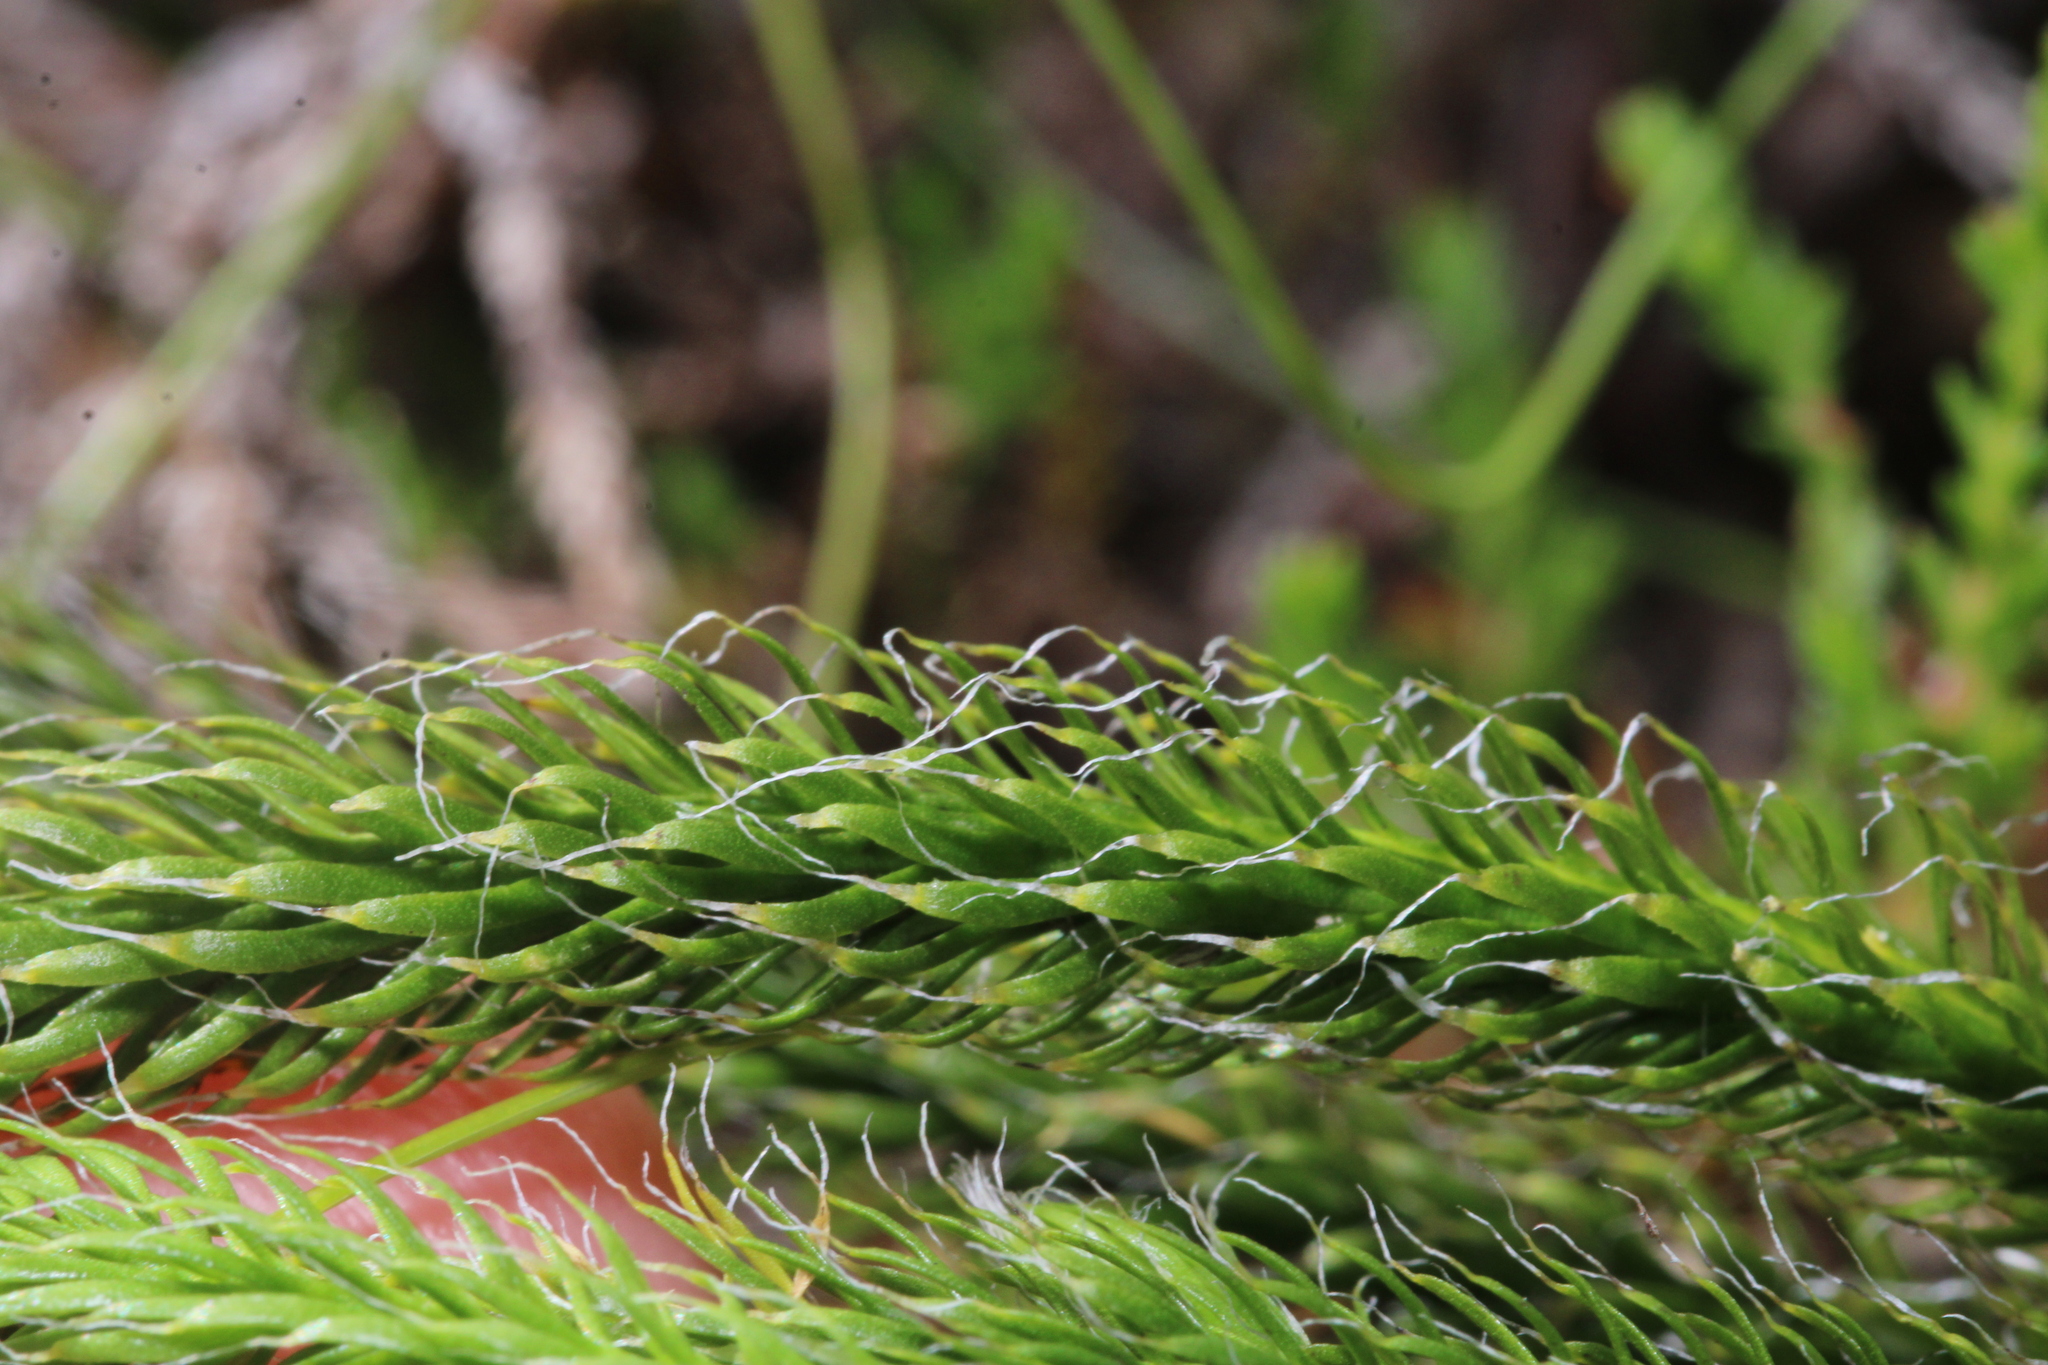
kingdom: Plantae
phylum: Tracheophyta
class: Lycopodiopsida
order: Lycopodiales
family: Lycopodiaceae
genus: Lycopodium
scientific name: Lycopodium clavatum
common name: Stag's-horn clubmoss
